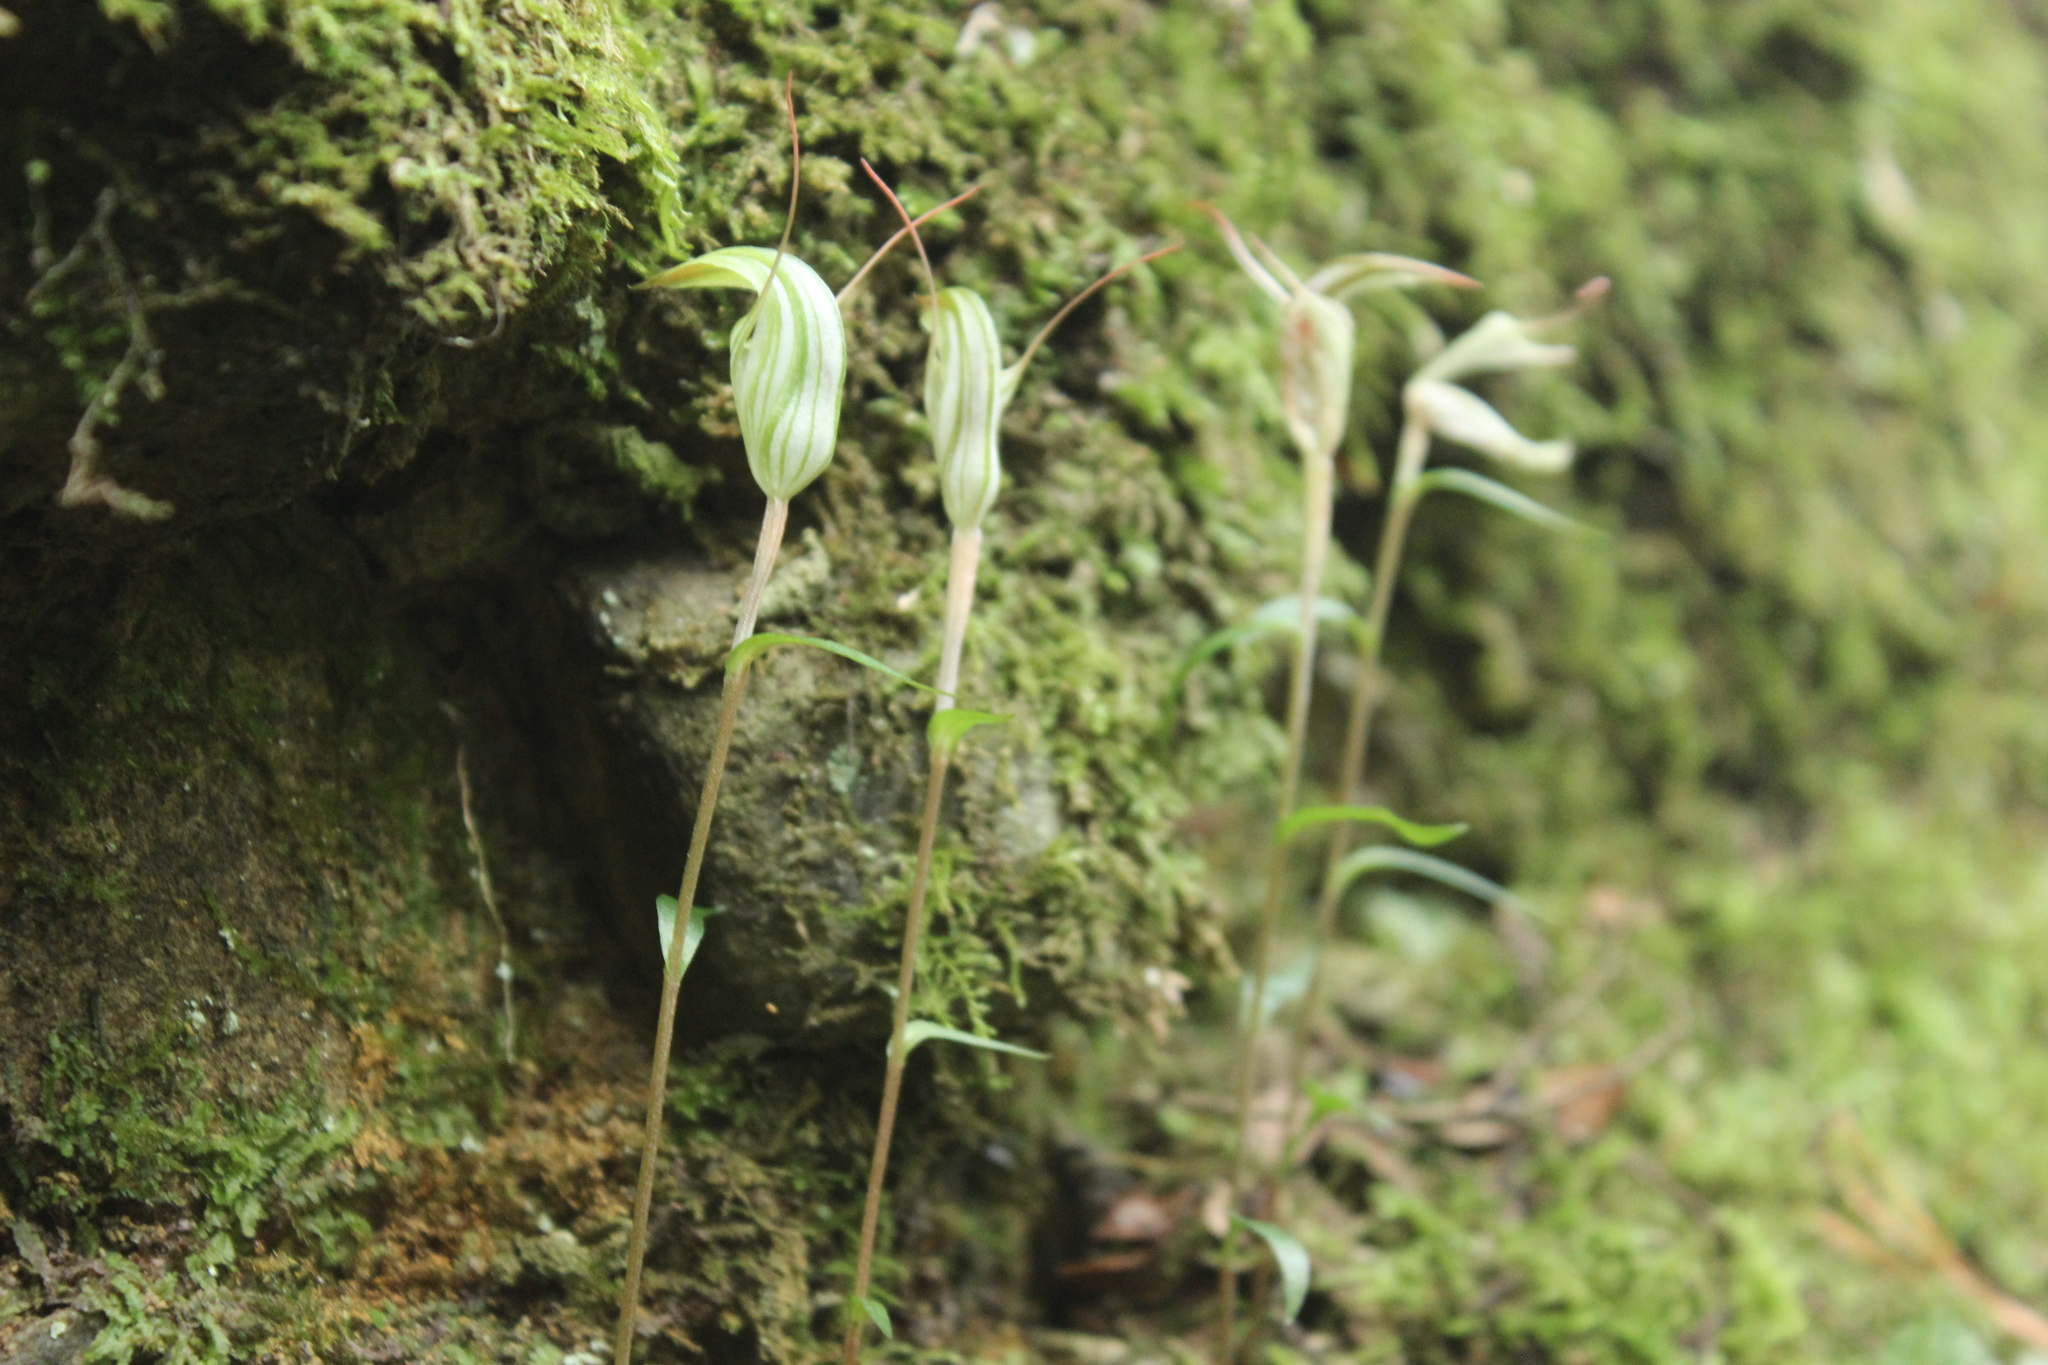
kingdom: Plantae
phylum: Tracheophyta
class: Liliopsida
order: Asparagales
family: Orchidaceae
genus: Pterostylis
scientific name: Pterostylis alobula
